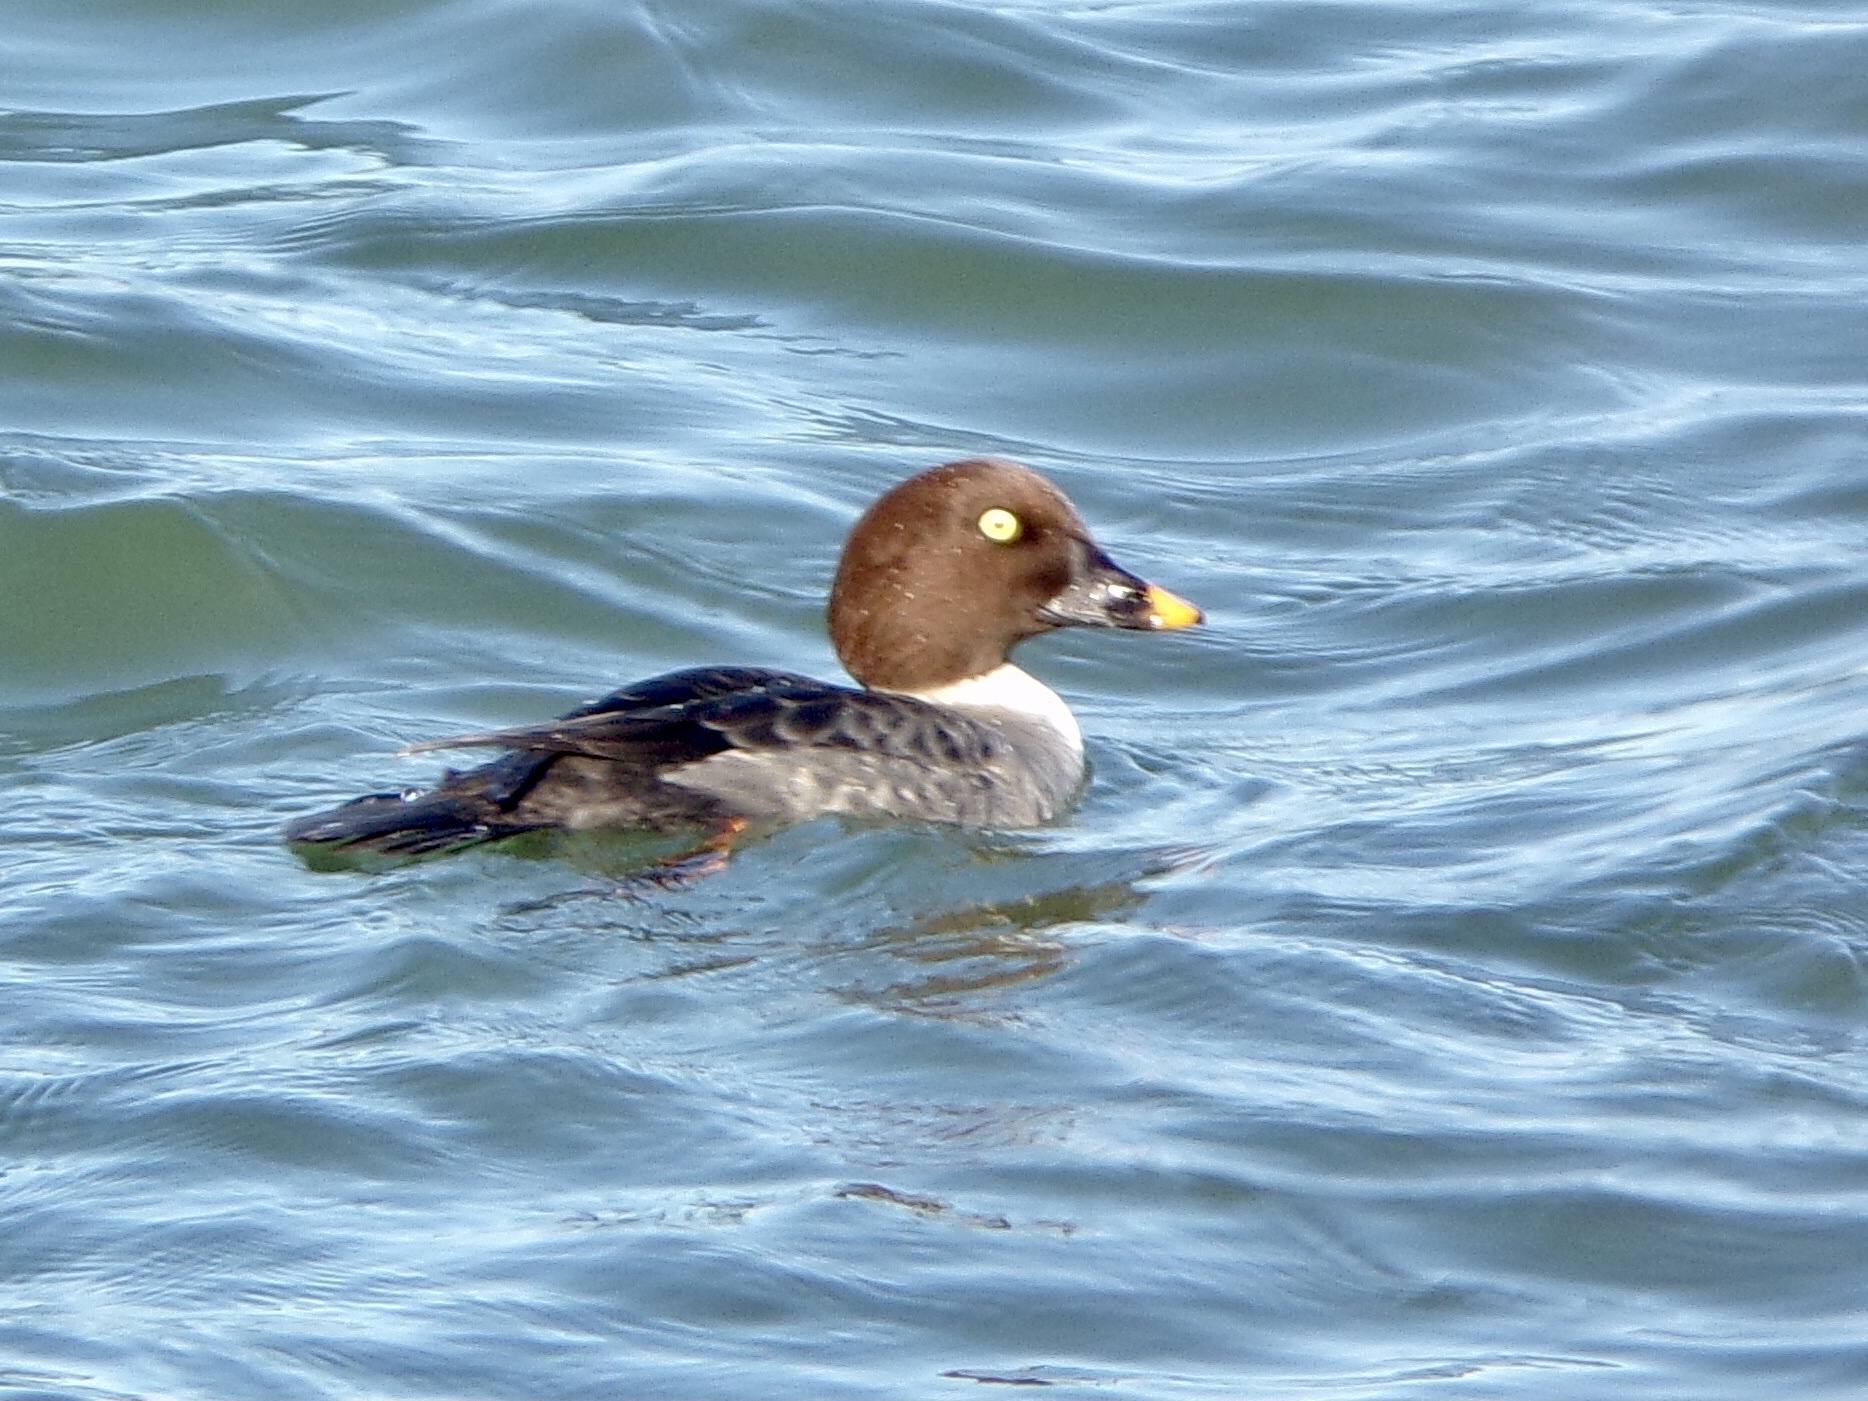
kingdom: Animalia
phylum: Chordata
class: Aves
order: Anseriformes
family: Anatidae
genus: Bucephala
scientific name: Bucephala clangula
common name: Common goldeneye
